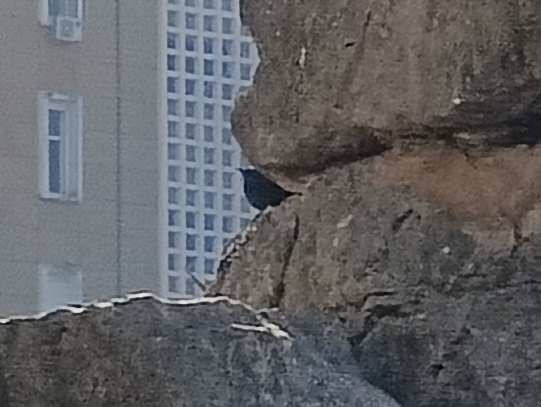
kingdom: Animalia
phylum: Chordata
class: Aves
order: Passeriformes
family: Muscicapidae
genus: Monticola
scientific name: Monticola solitarius
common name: Blue rock thrush
